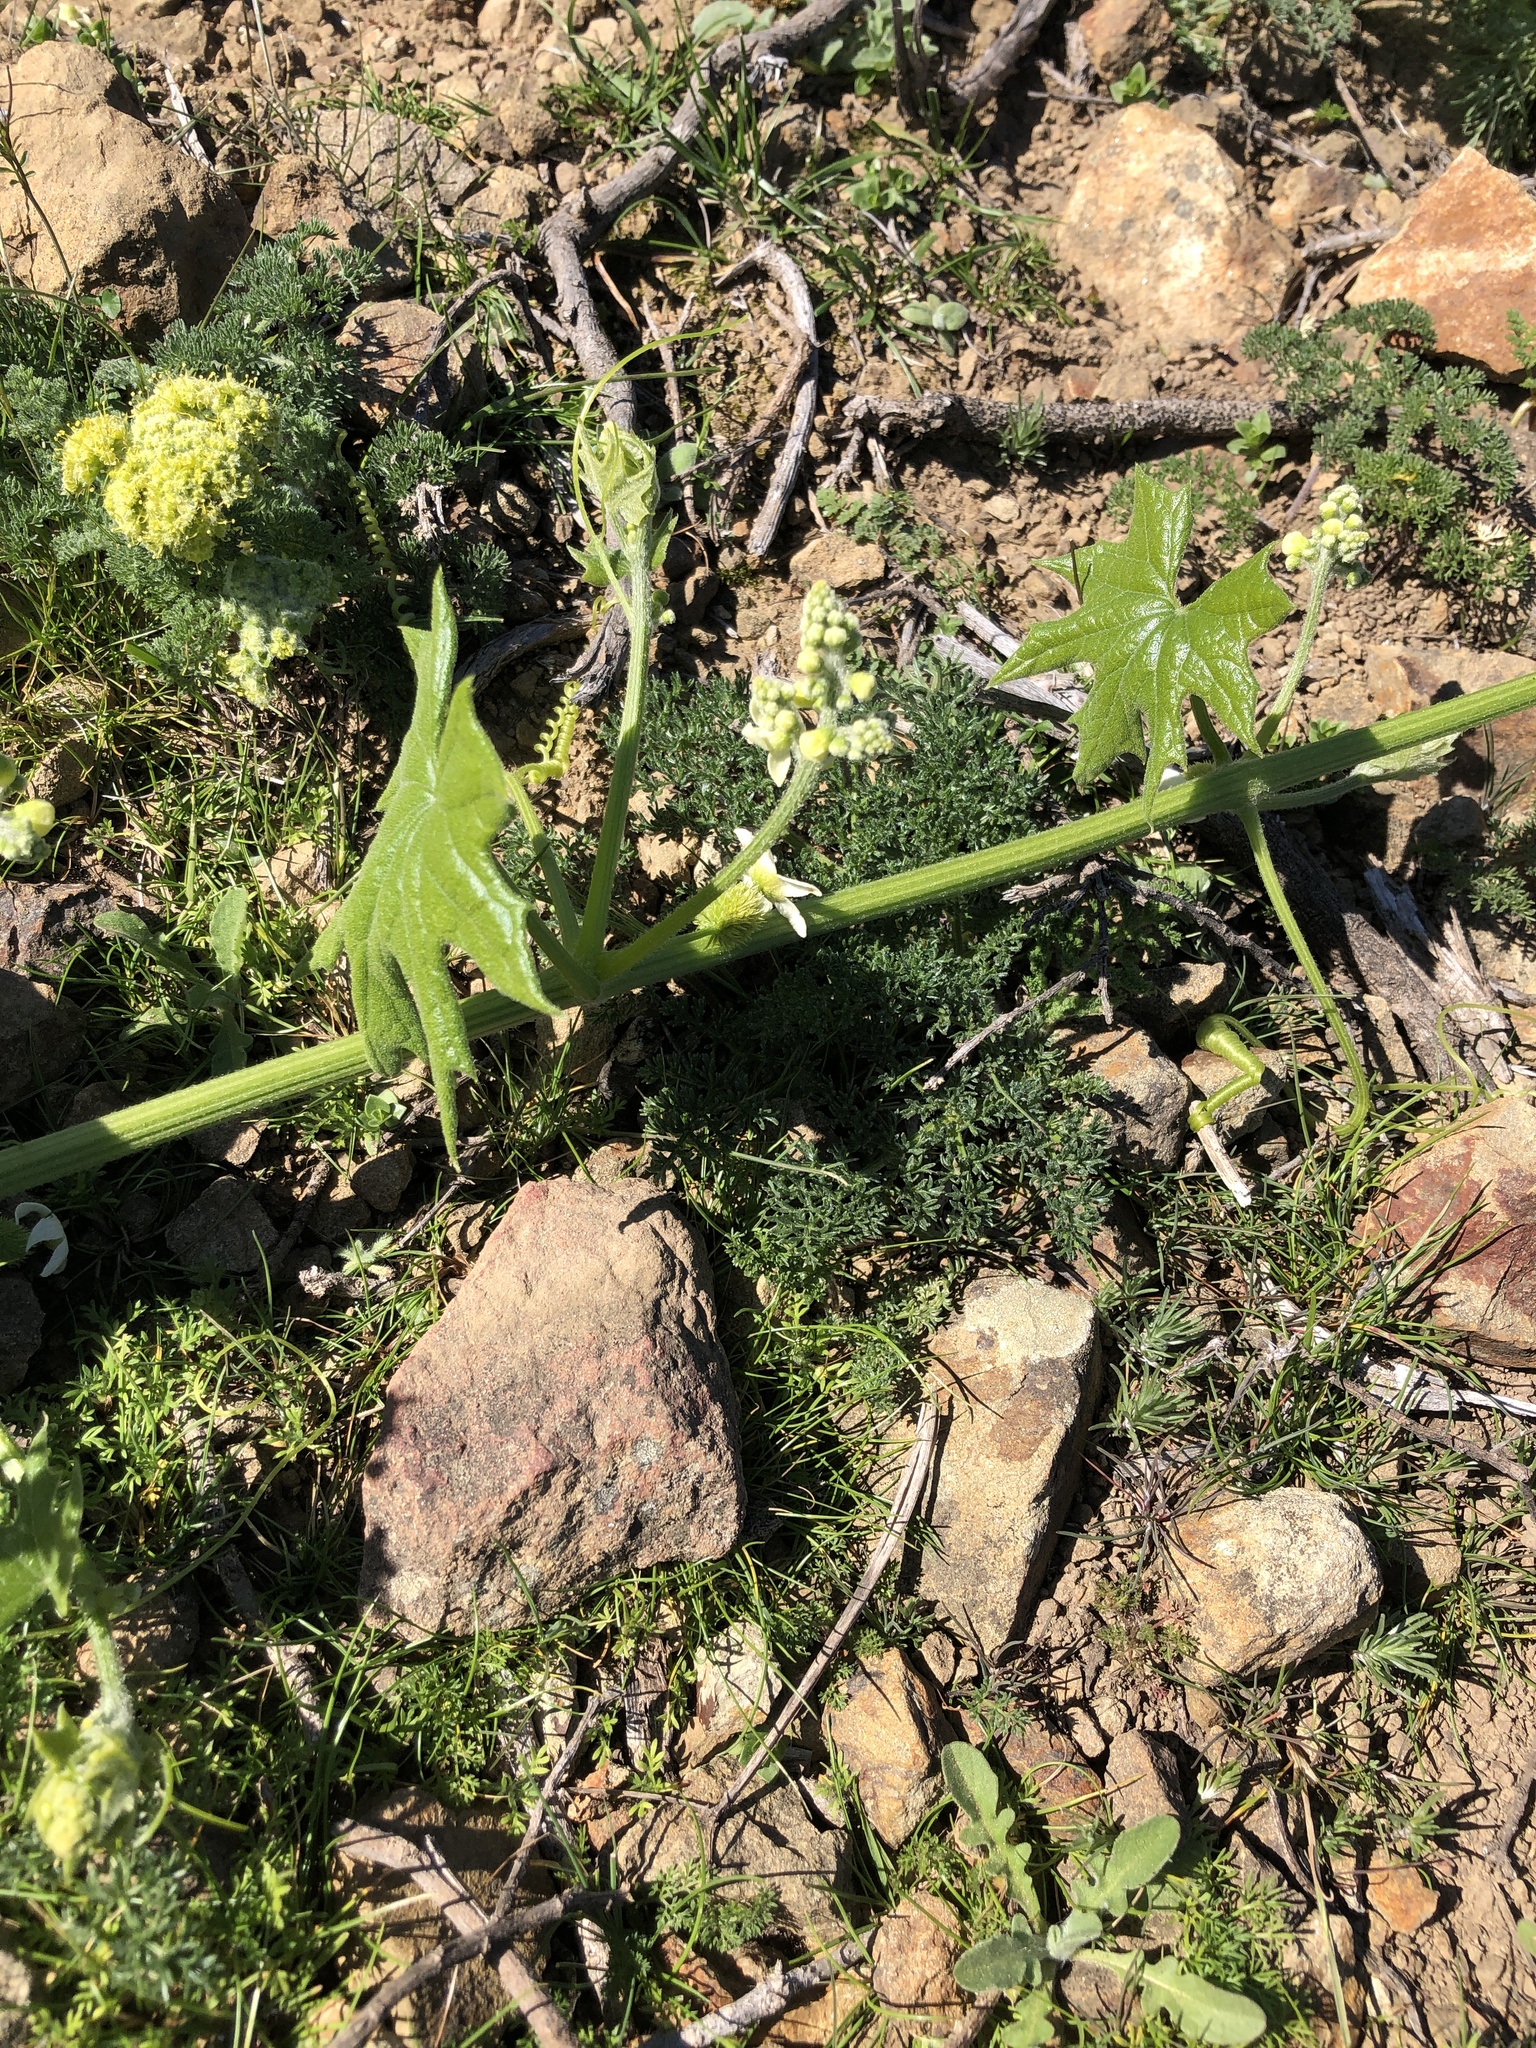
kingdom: Plantae
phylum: Tracheophyta
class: Magnoliopsida
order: Cucurbitales
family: Cucurbitaceae
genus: Marah
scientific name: Marah oregana
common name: Coastal manroot
